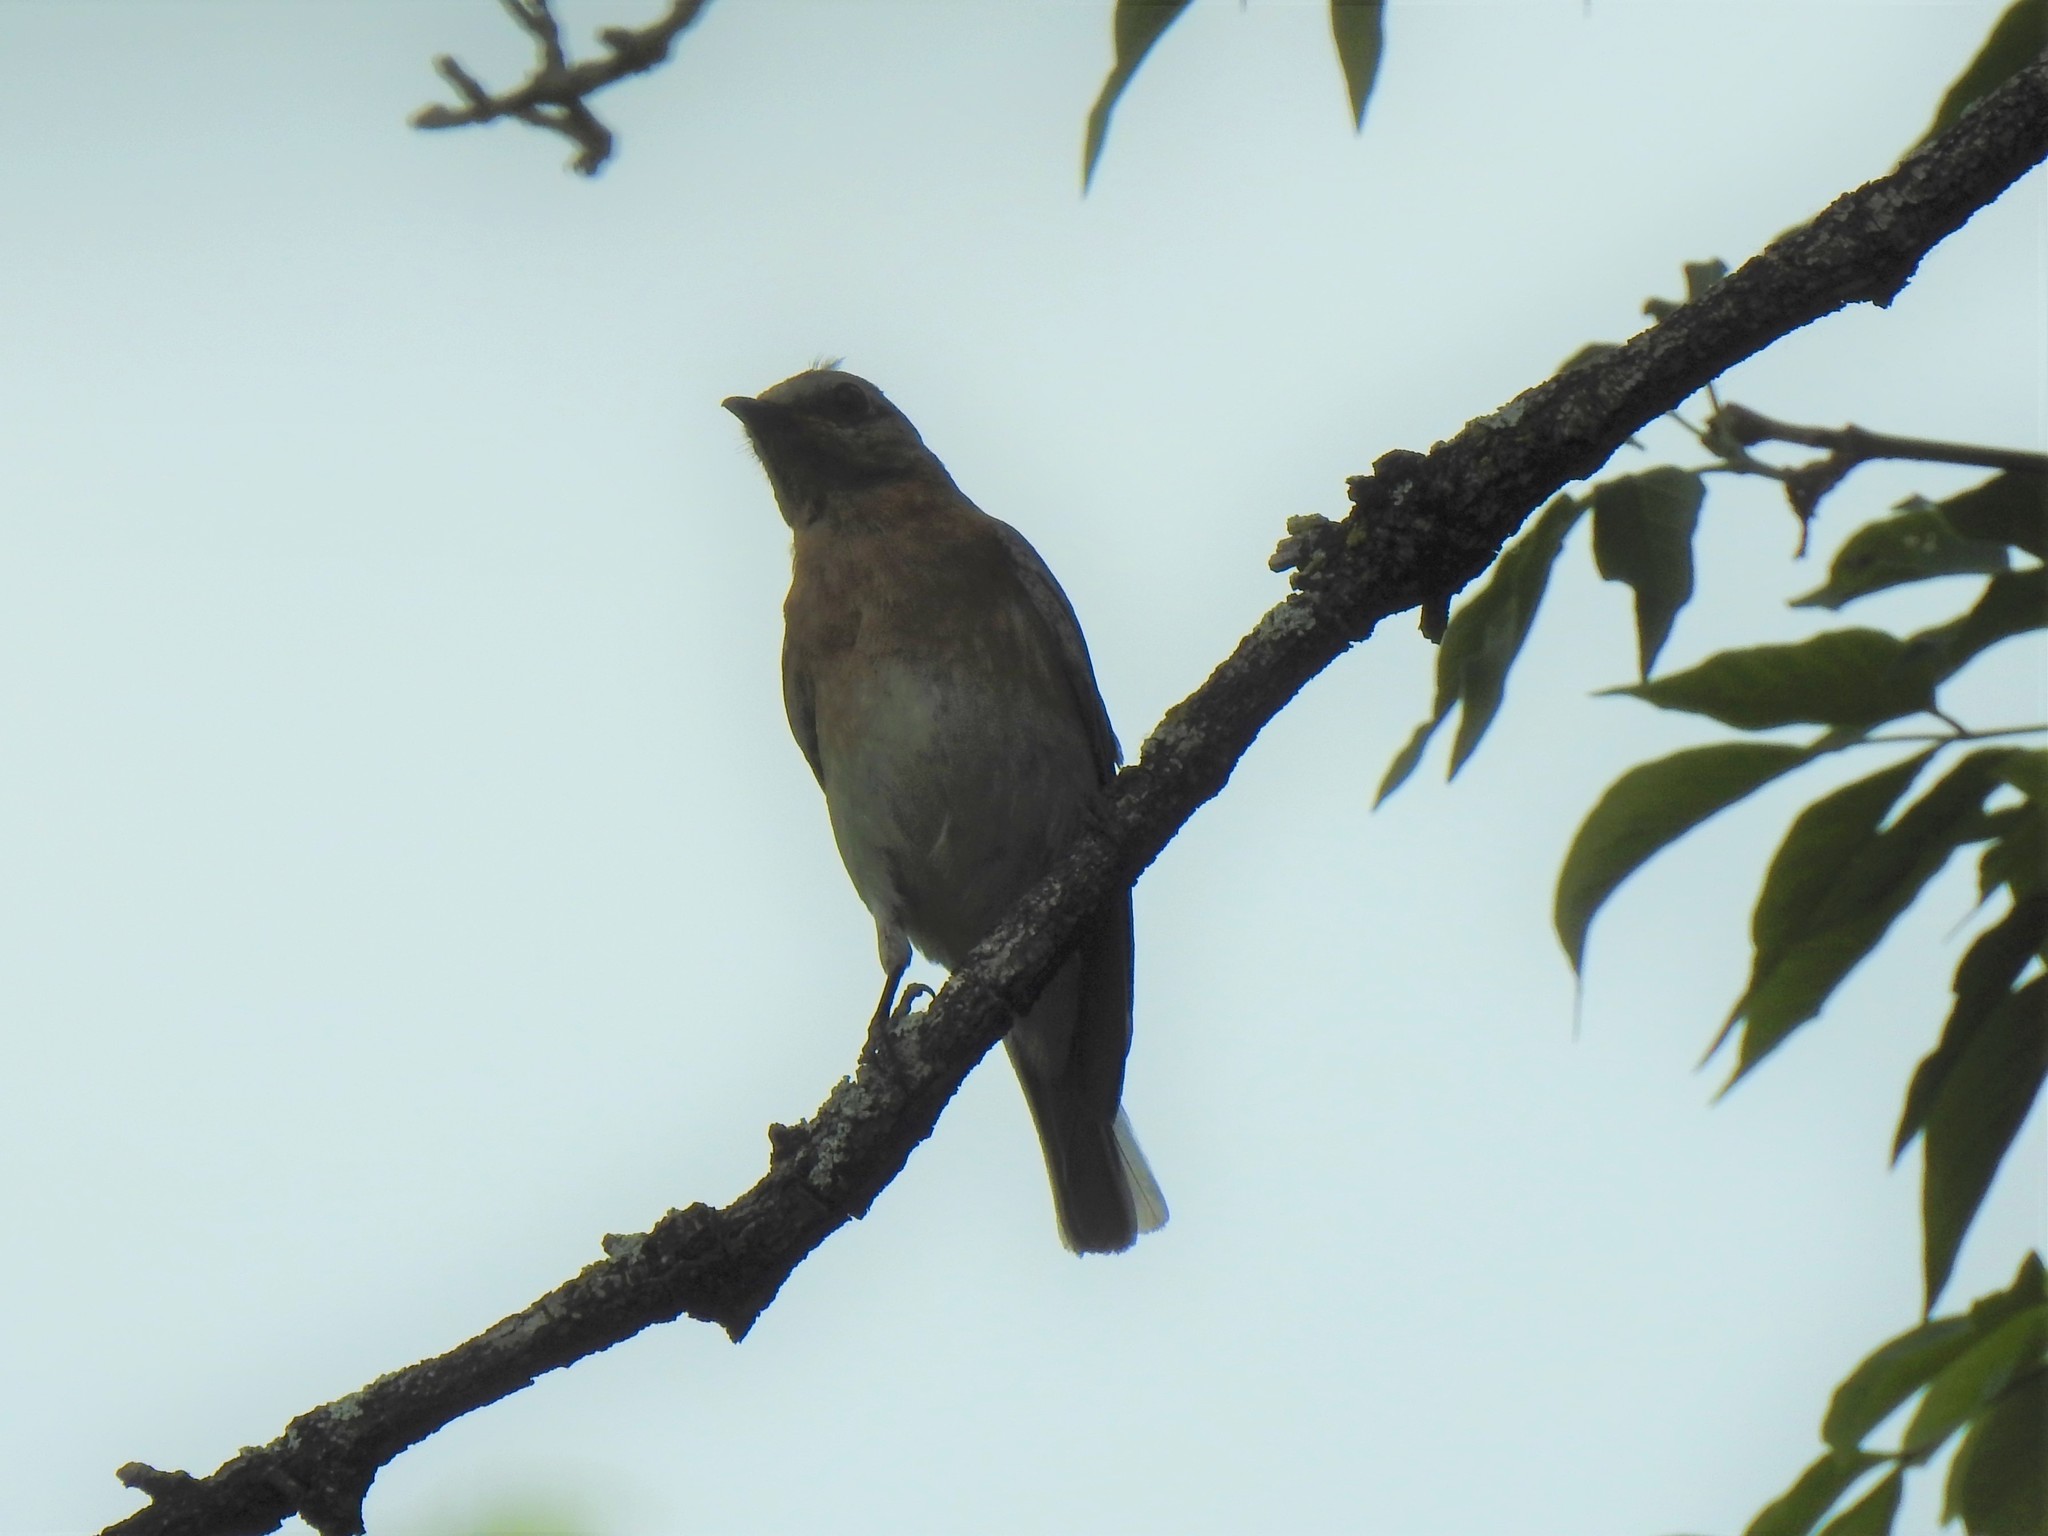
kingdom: Animalia
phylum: Chordata
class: Aves
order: Passeriformes
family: Turdidae
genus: Sialia
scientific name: Sialia sialis
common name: Eastern bluebird
